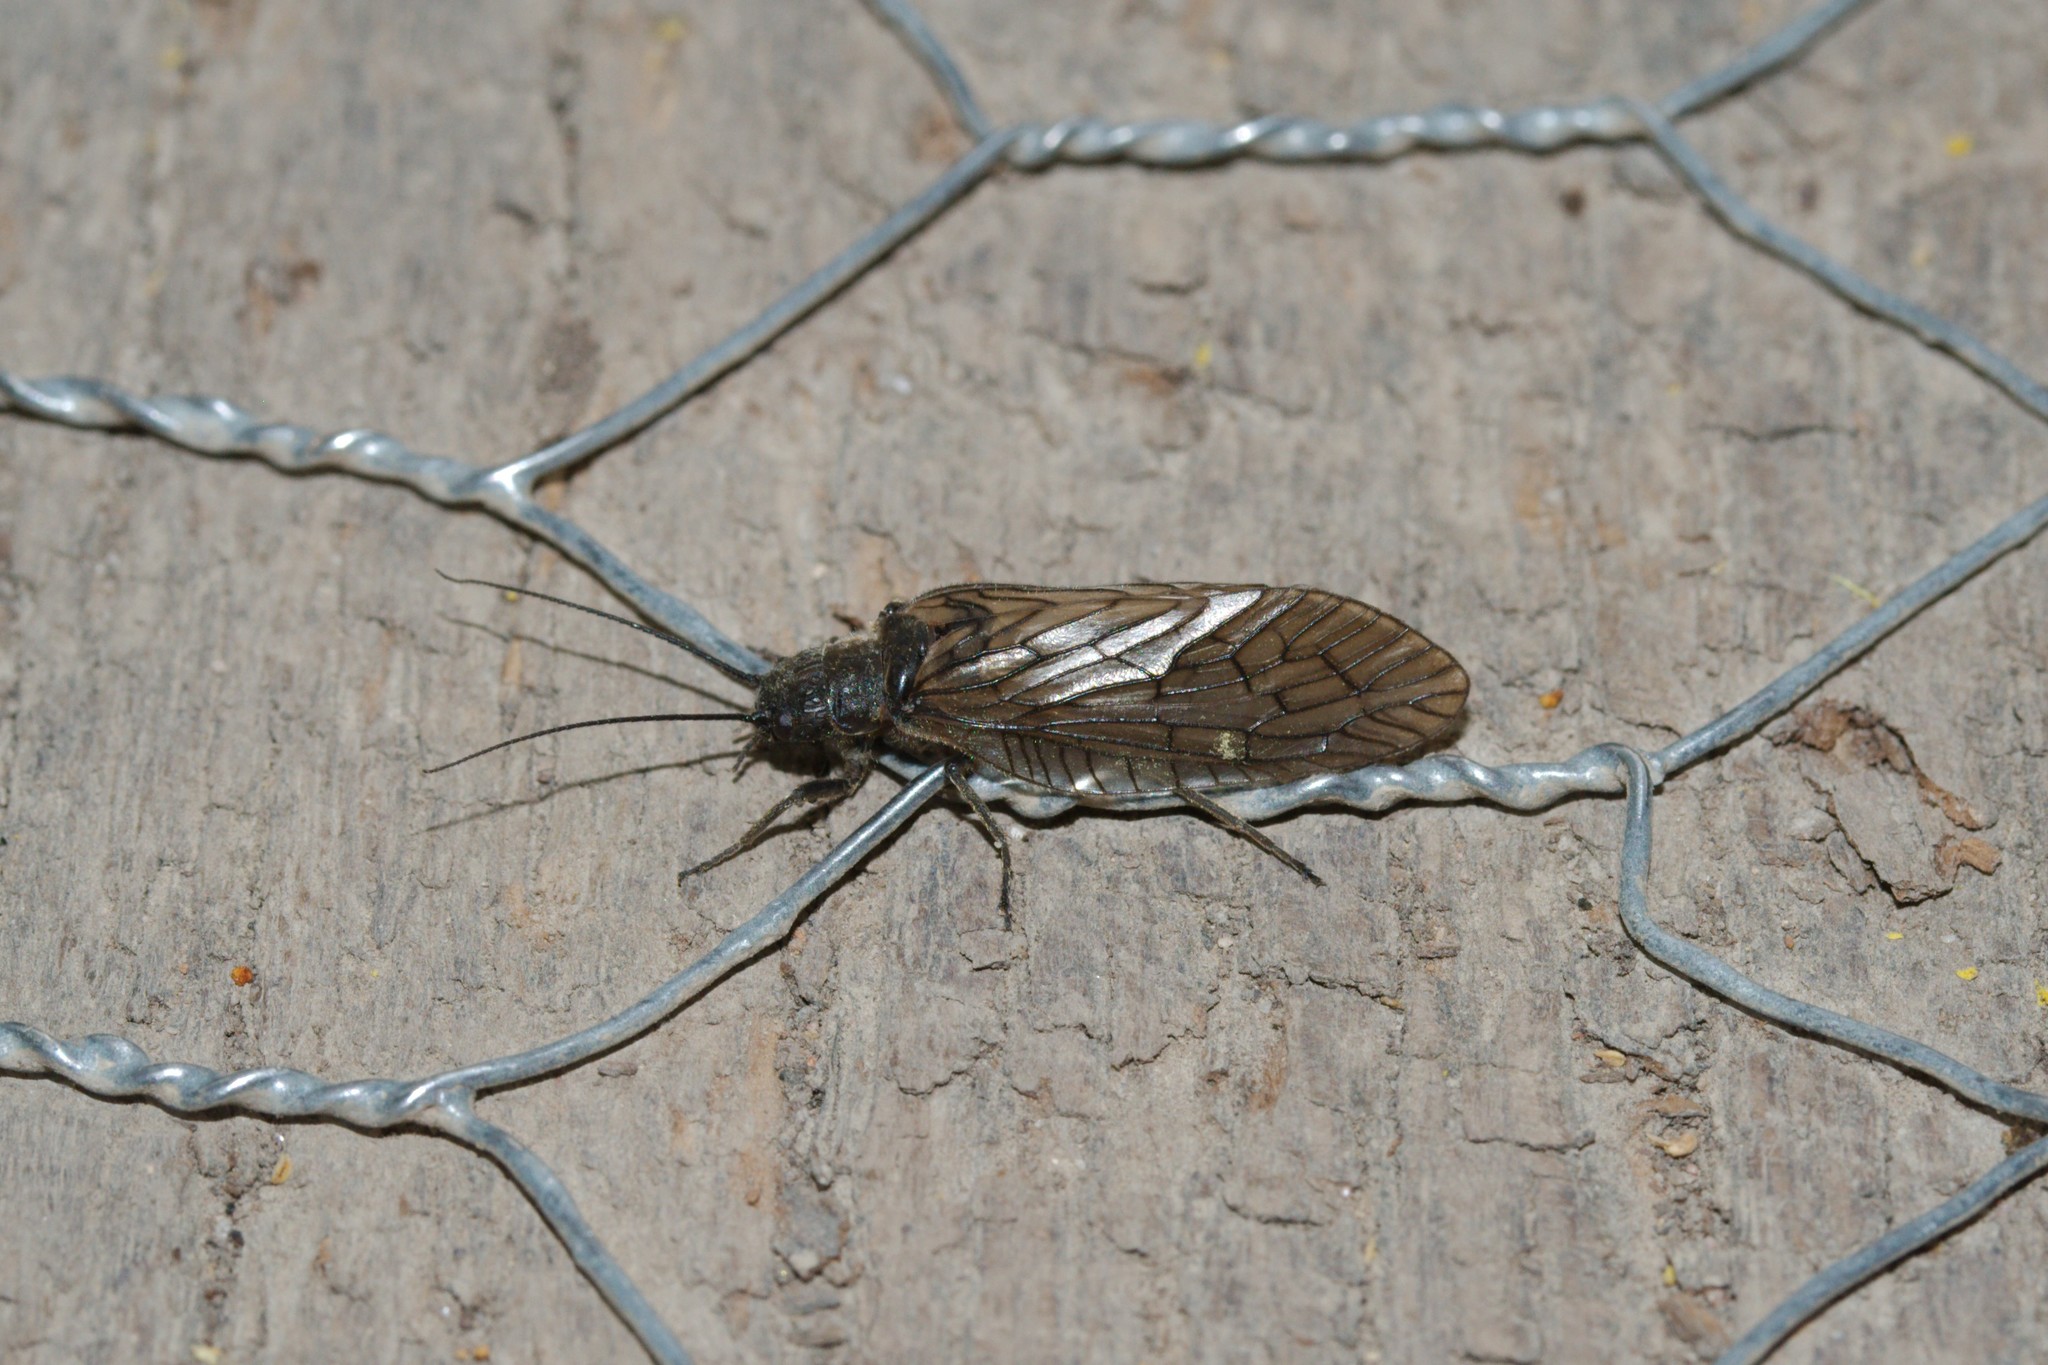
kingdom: Animalia
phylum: Arthropoda
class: Insecta
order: Megaloptera
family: Sialidae
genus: Sialis
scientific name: Sialis
